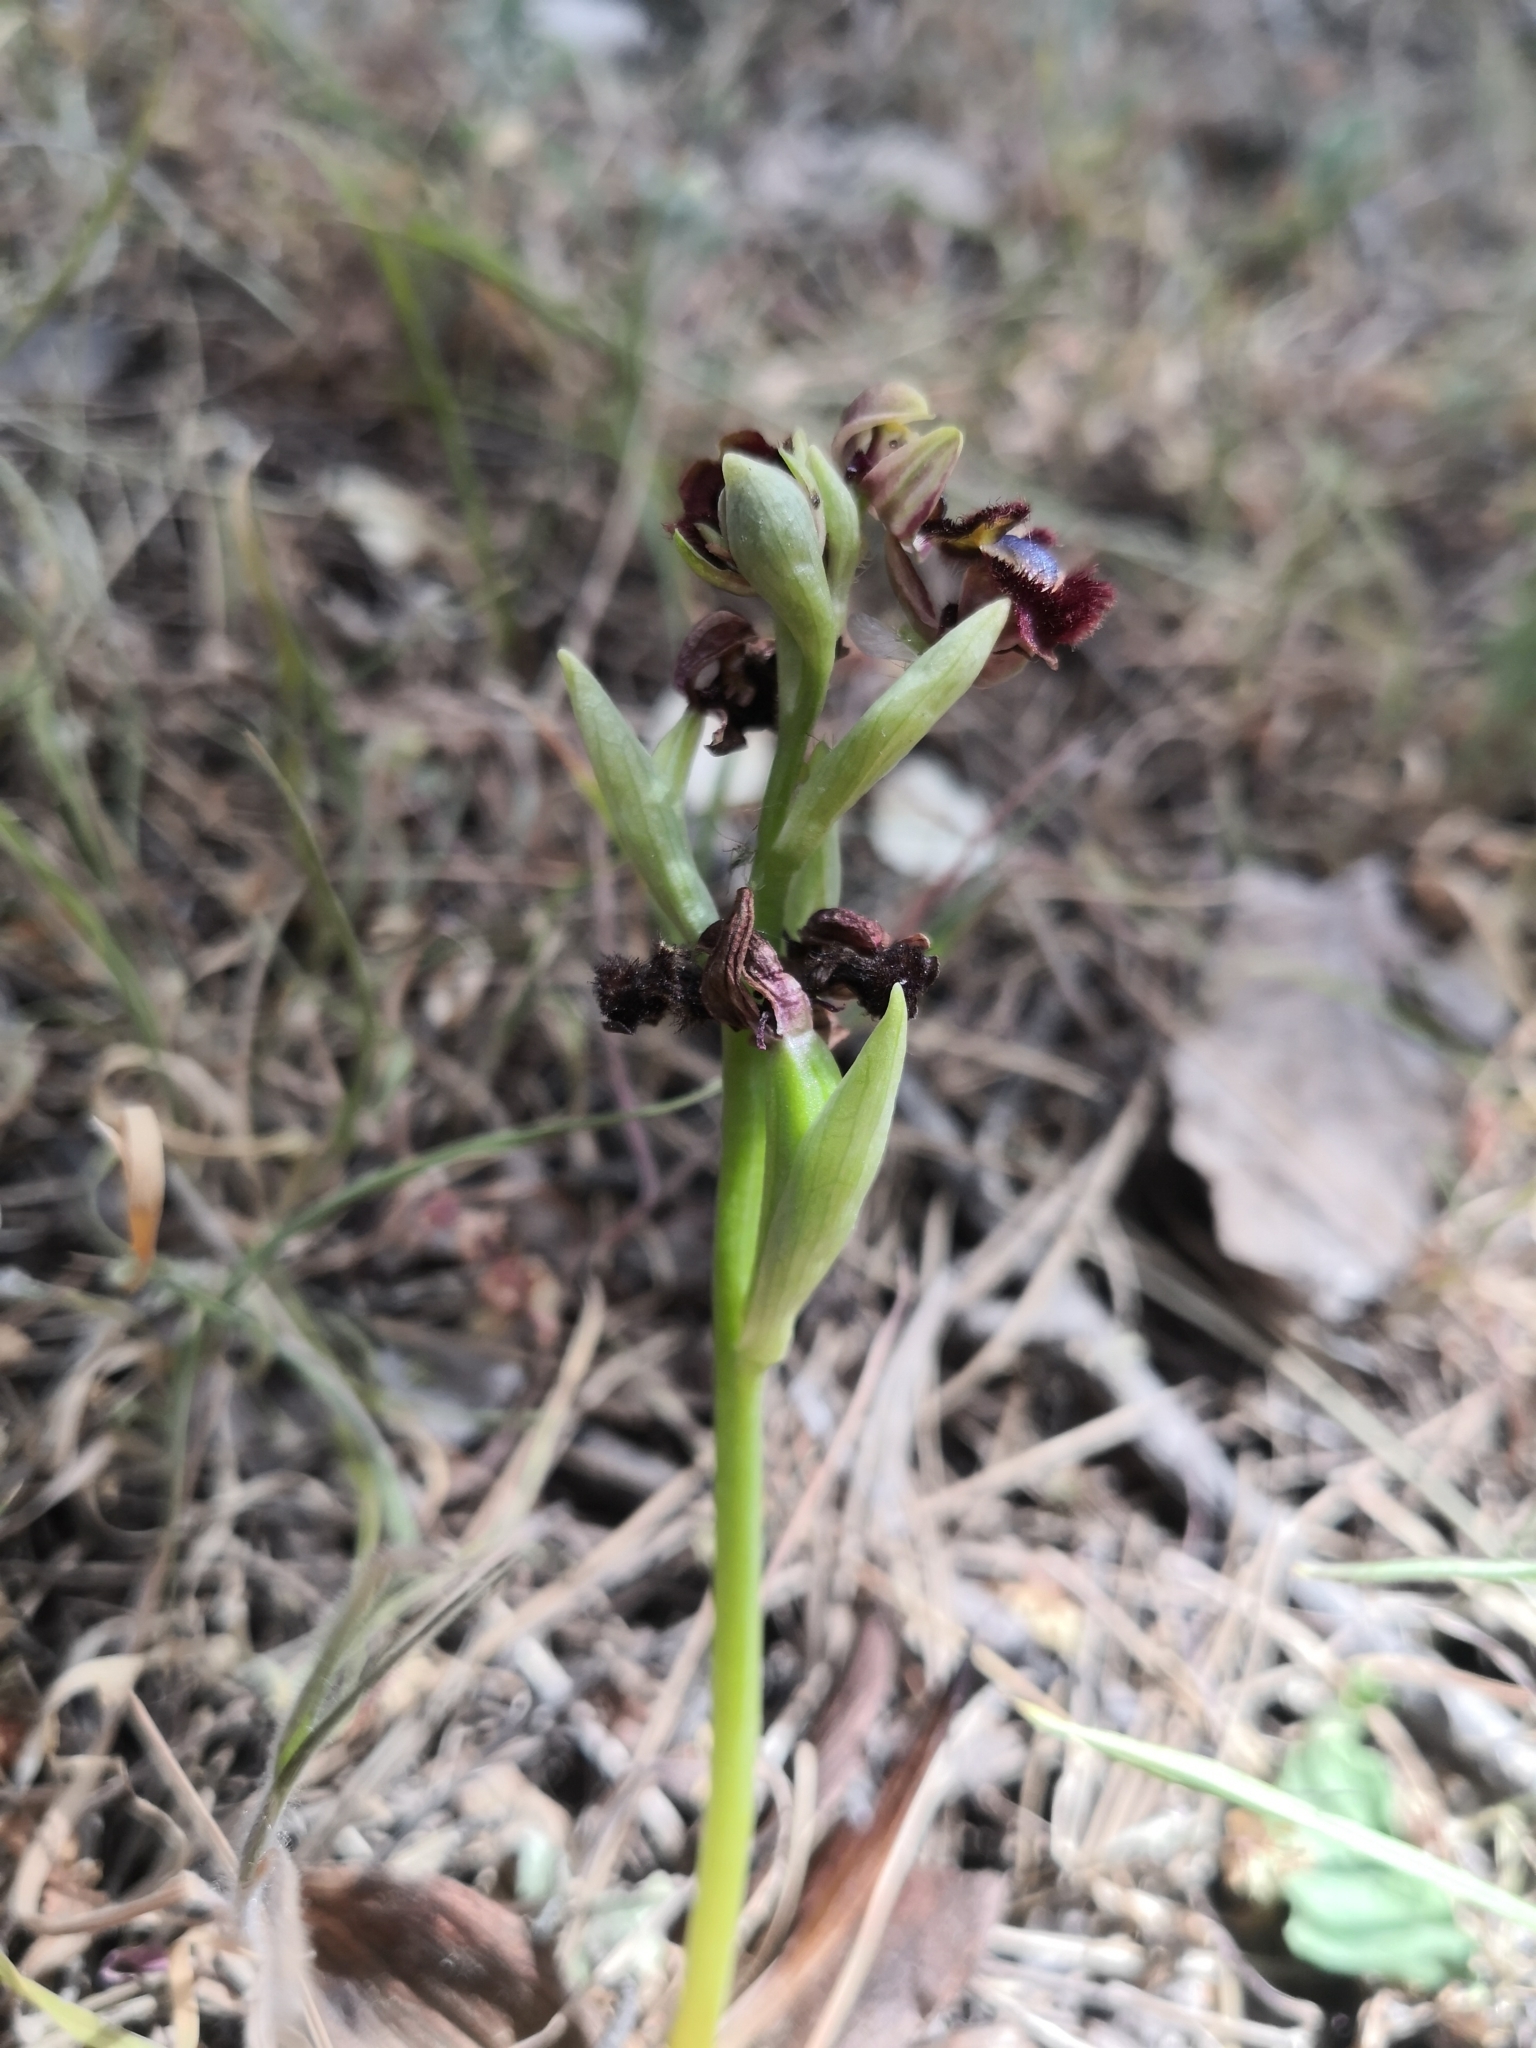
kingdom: Plantae
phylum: Tracheophyta
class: Liliopsida
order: Asparagales
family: Orchidaceae
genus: Ophrys
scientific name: Ophrys speculum
